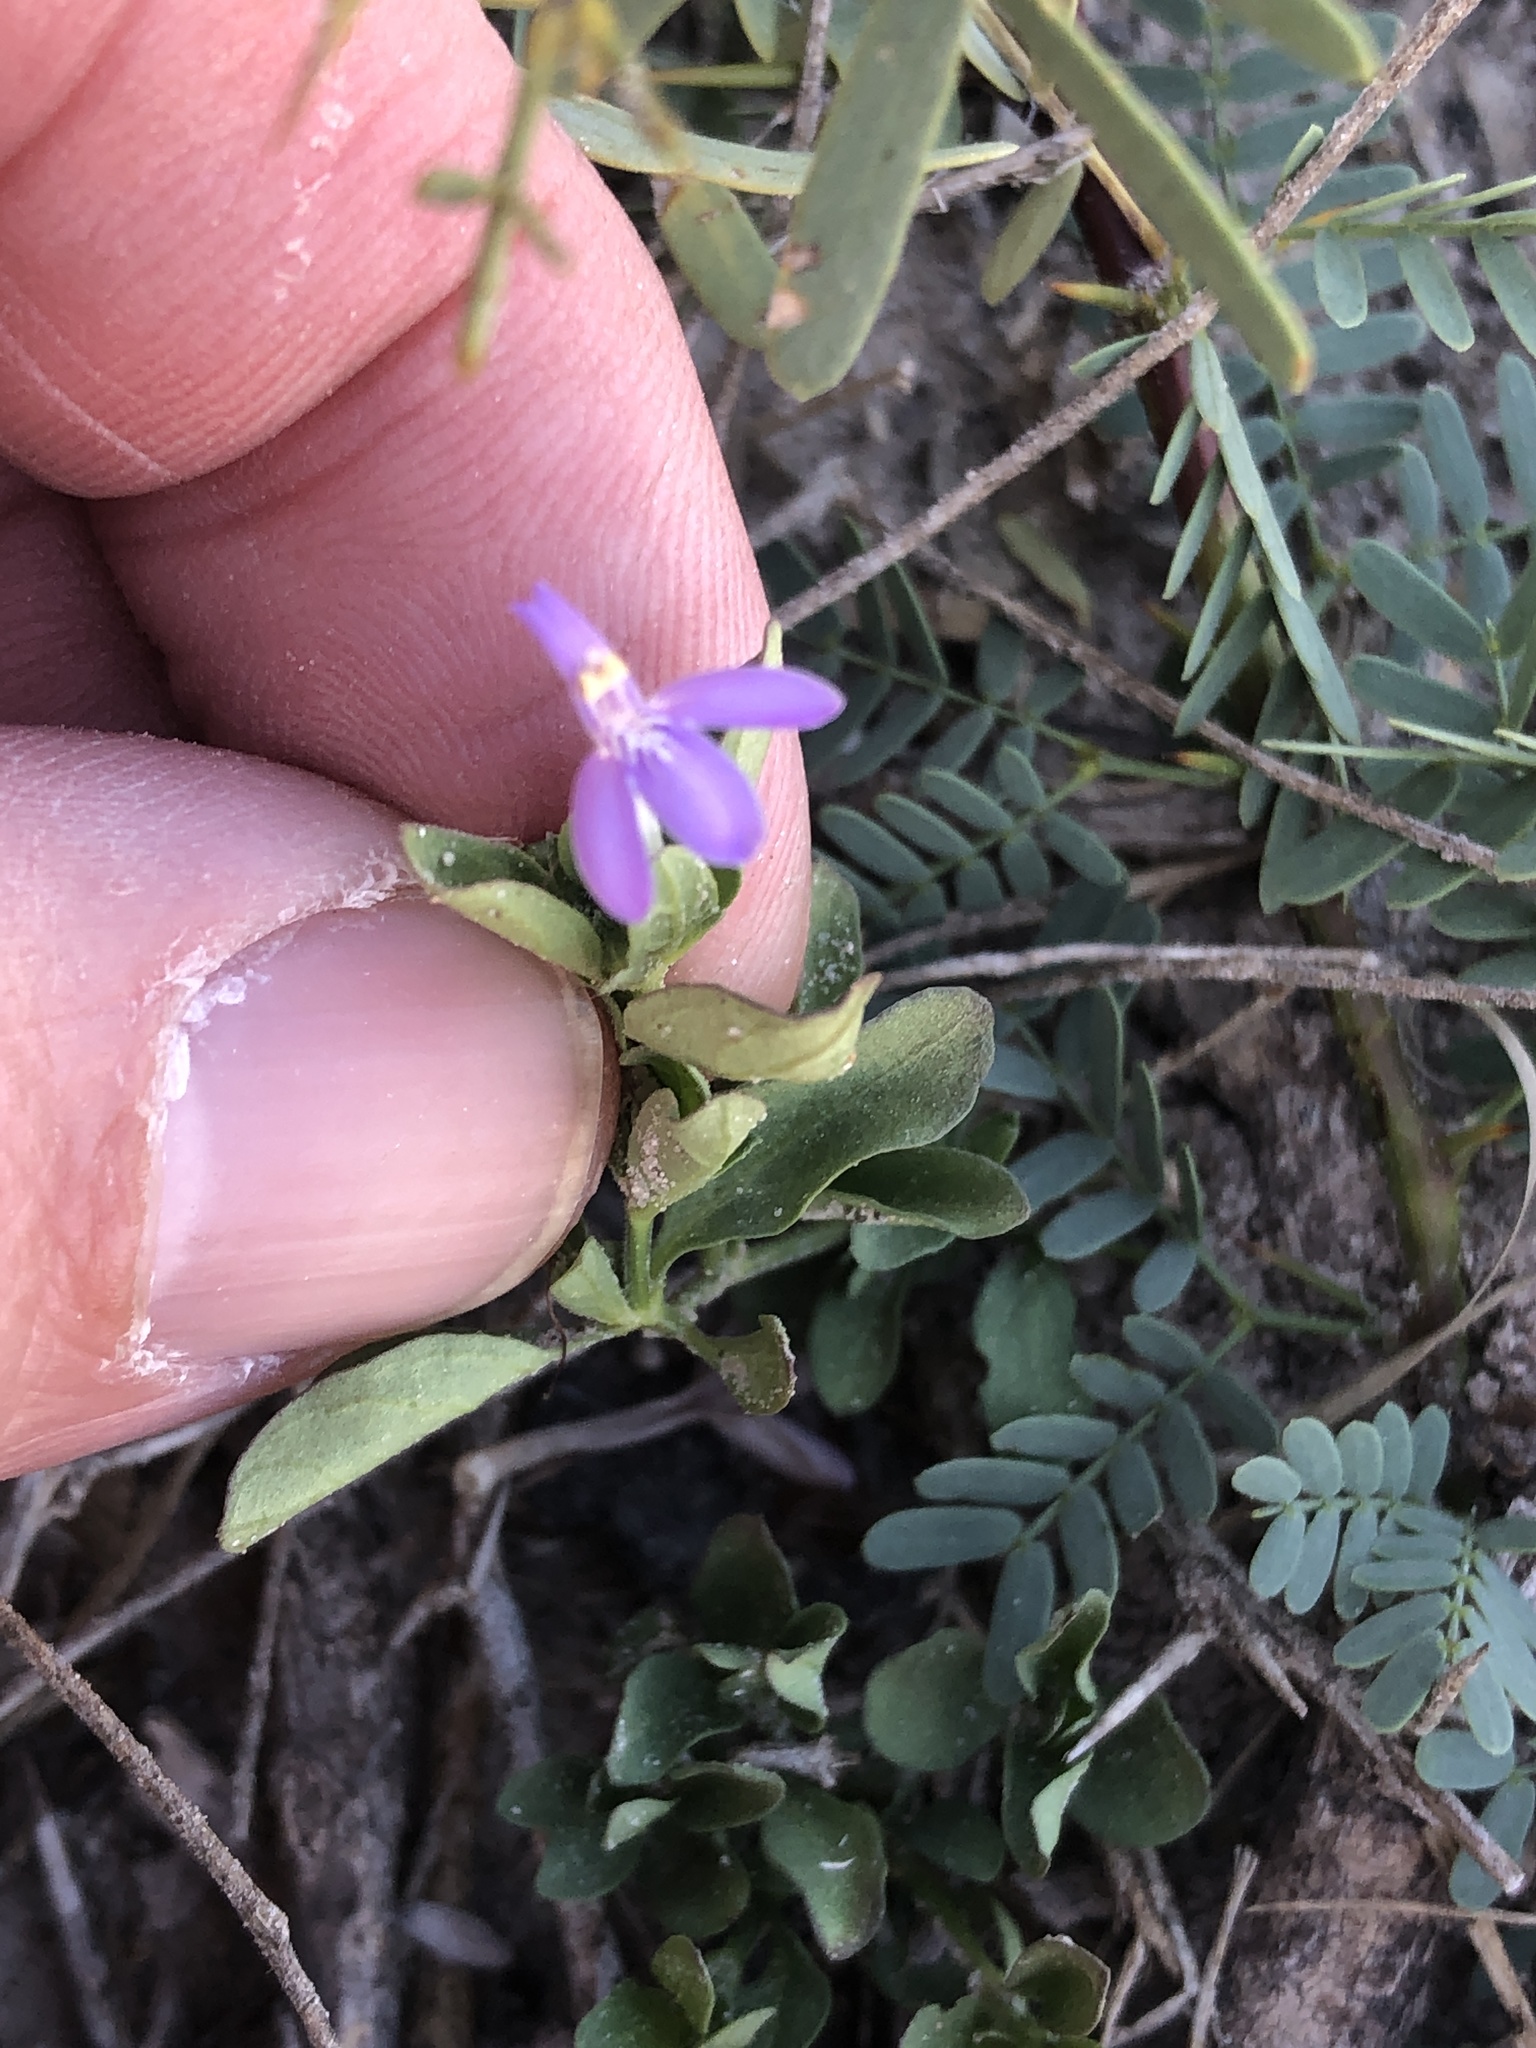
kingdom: Plantae
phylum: Tracheophyta
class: Magnoliopsida
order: Lamiales
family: Acanthaceae
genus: Justicia
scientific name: Justicia pilosella
